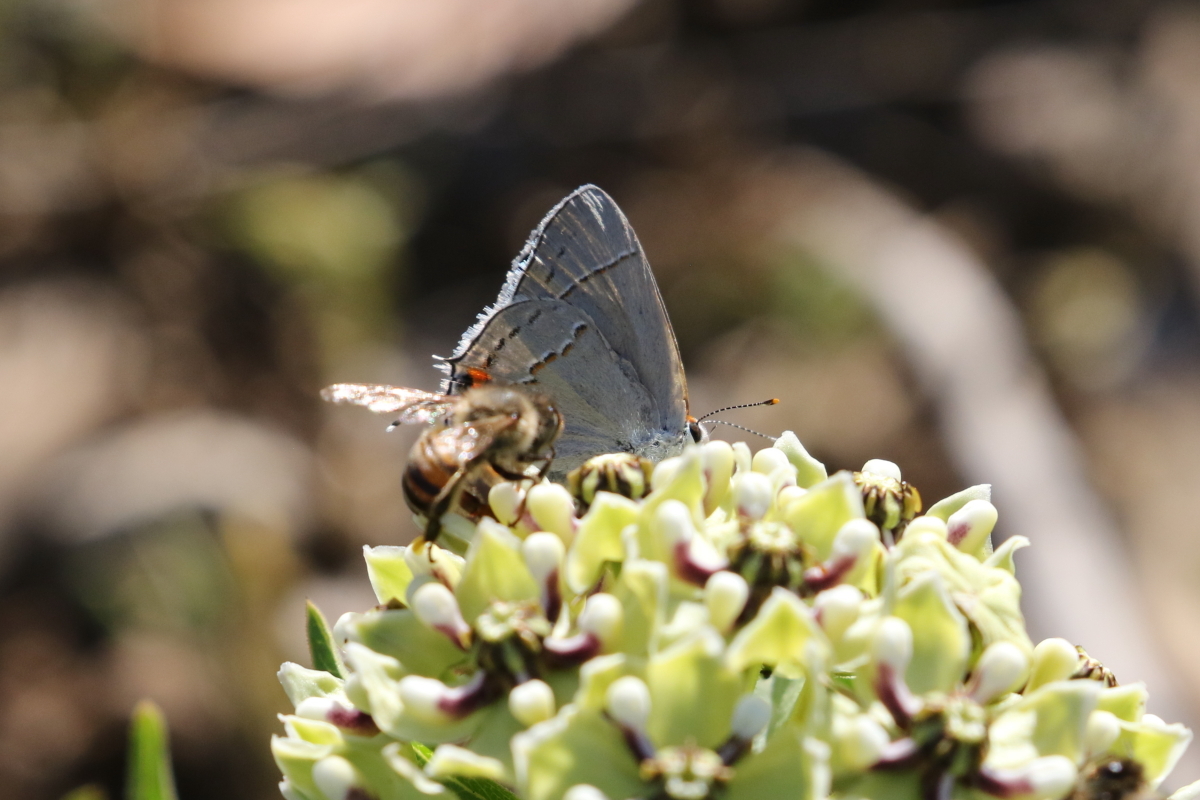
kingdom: Animalia
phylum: Arthropoda
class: Insecta
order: Lepidoptera
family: Lycaenidae
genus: Strymon
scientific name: Strymon melinus
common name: Gray hairstreak
